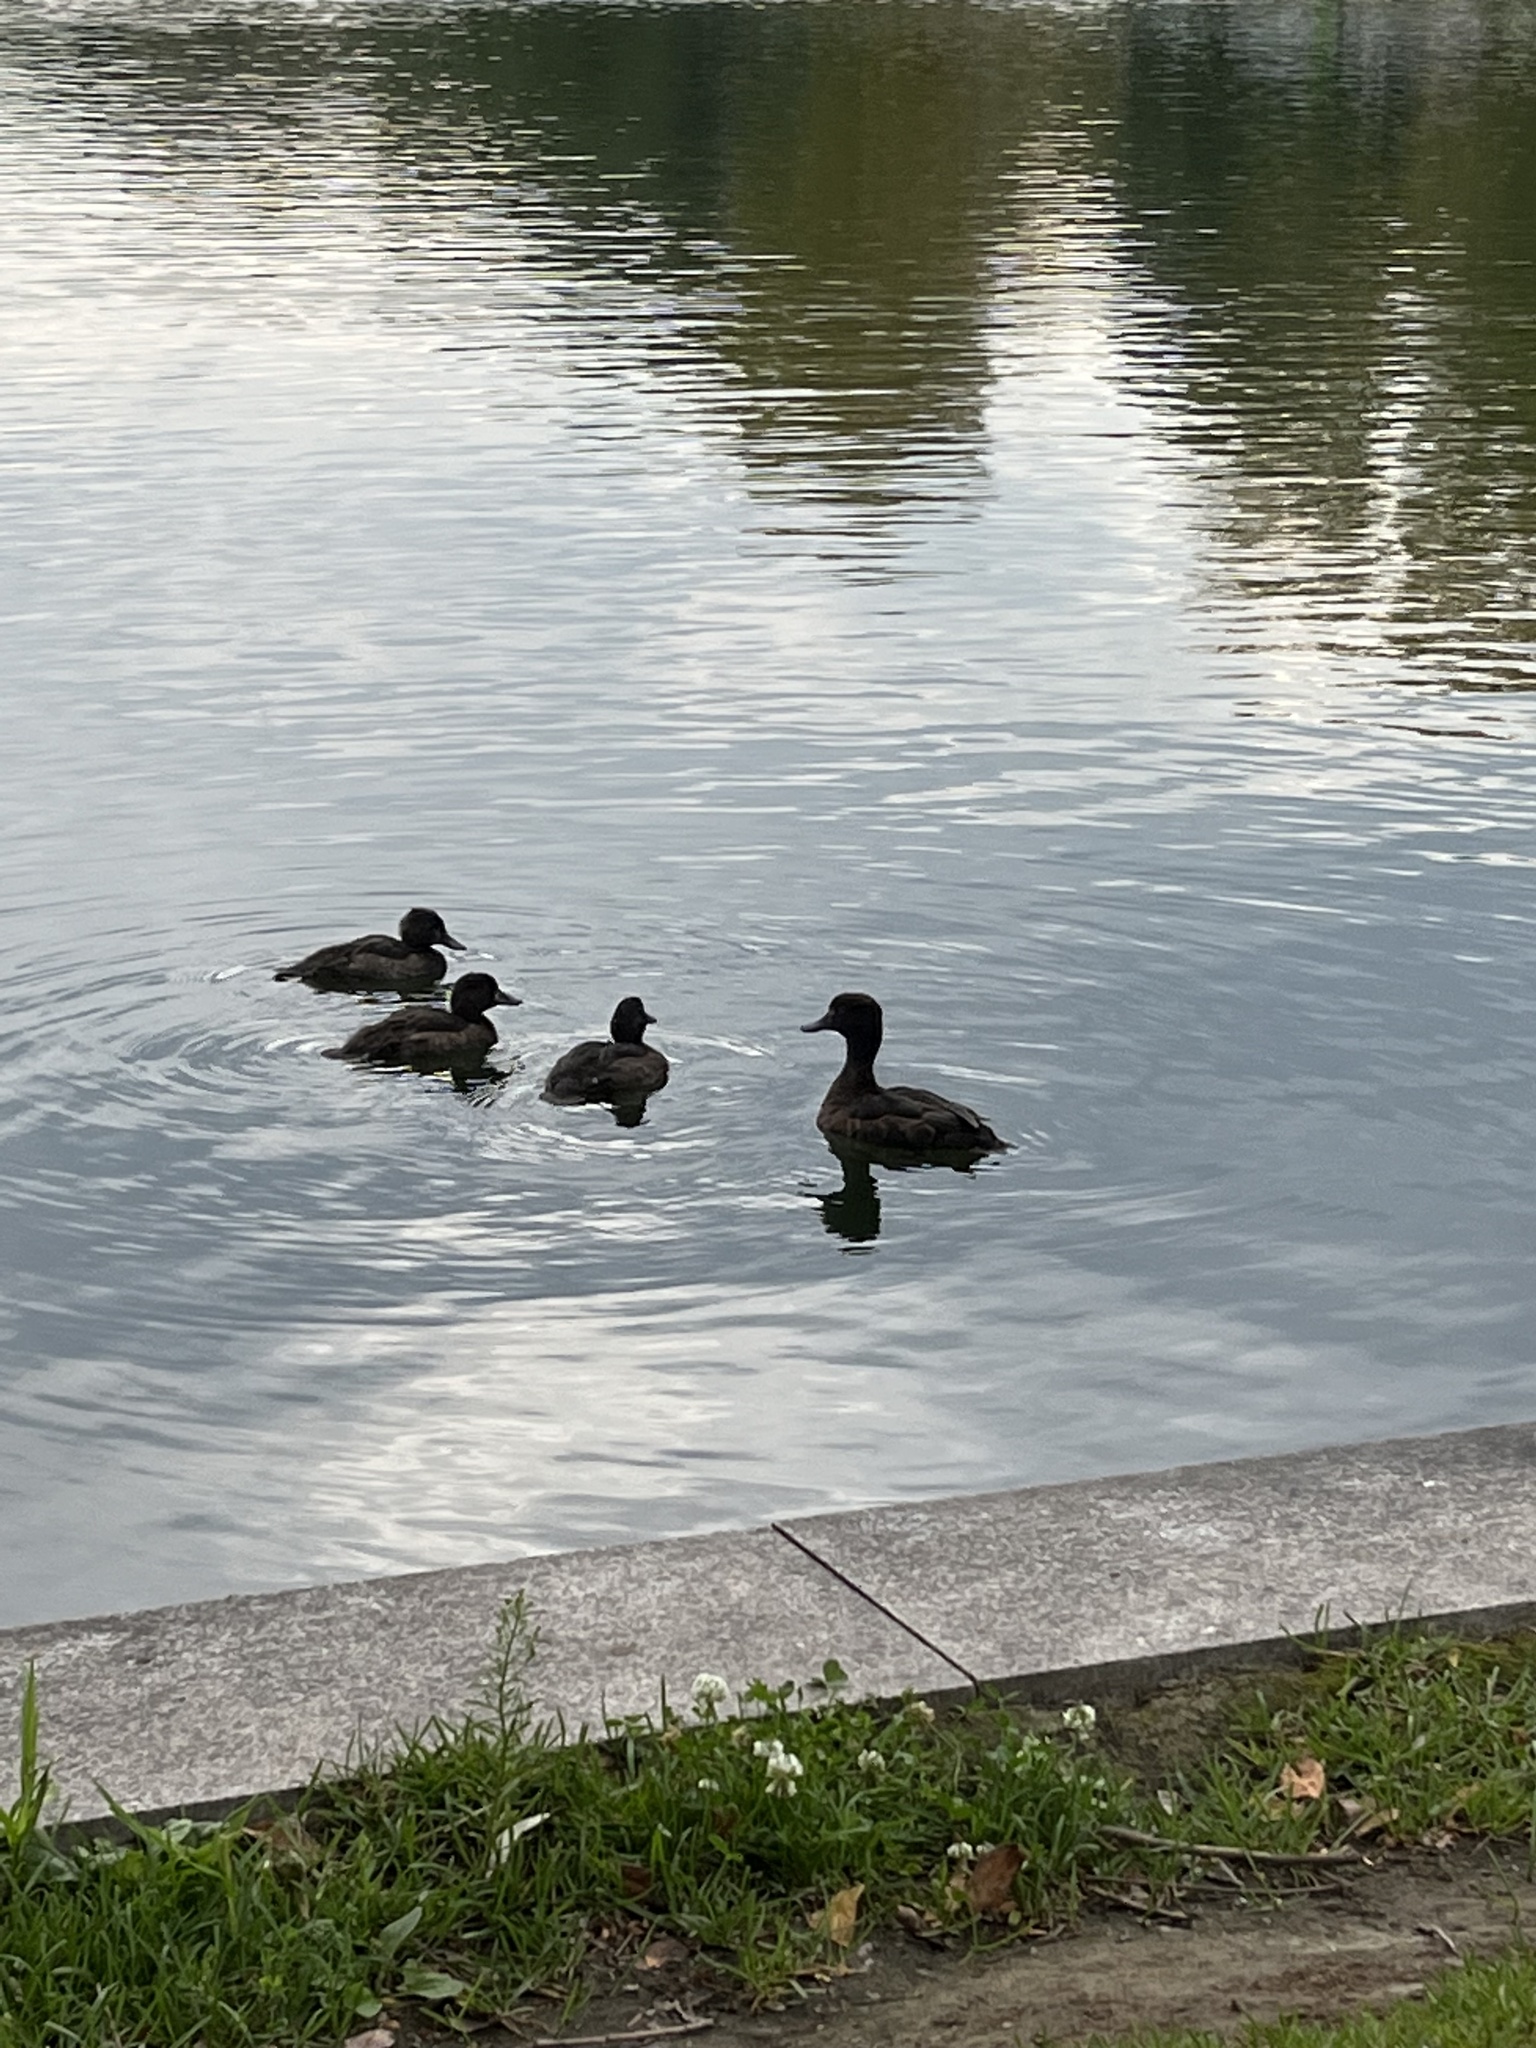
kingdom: Animalia
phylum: Chordata
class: Aves
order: Anseriformes
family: Anatidae
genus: Aythya
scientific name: Aythya fuligula
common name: Tufted duck
